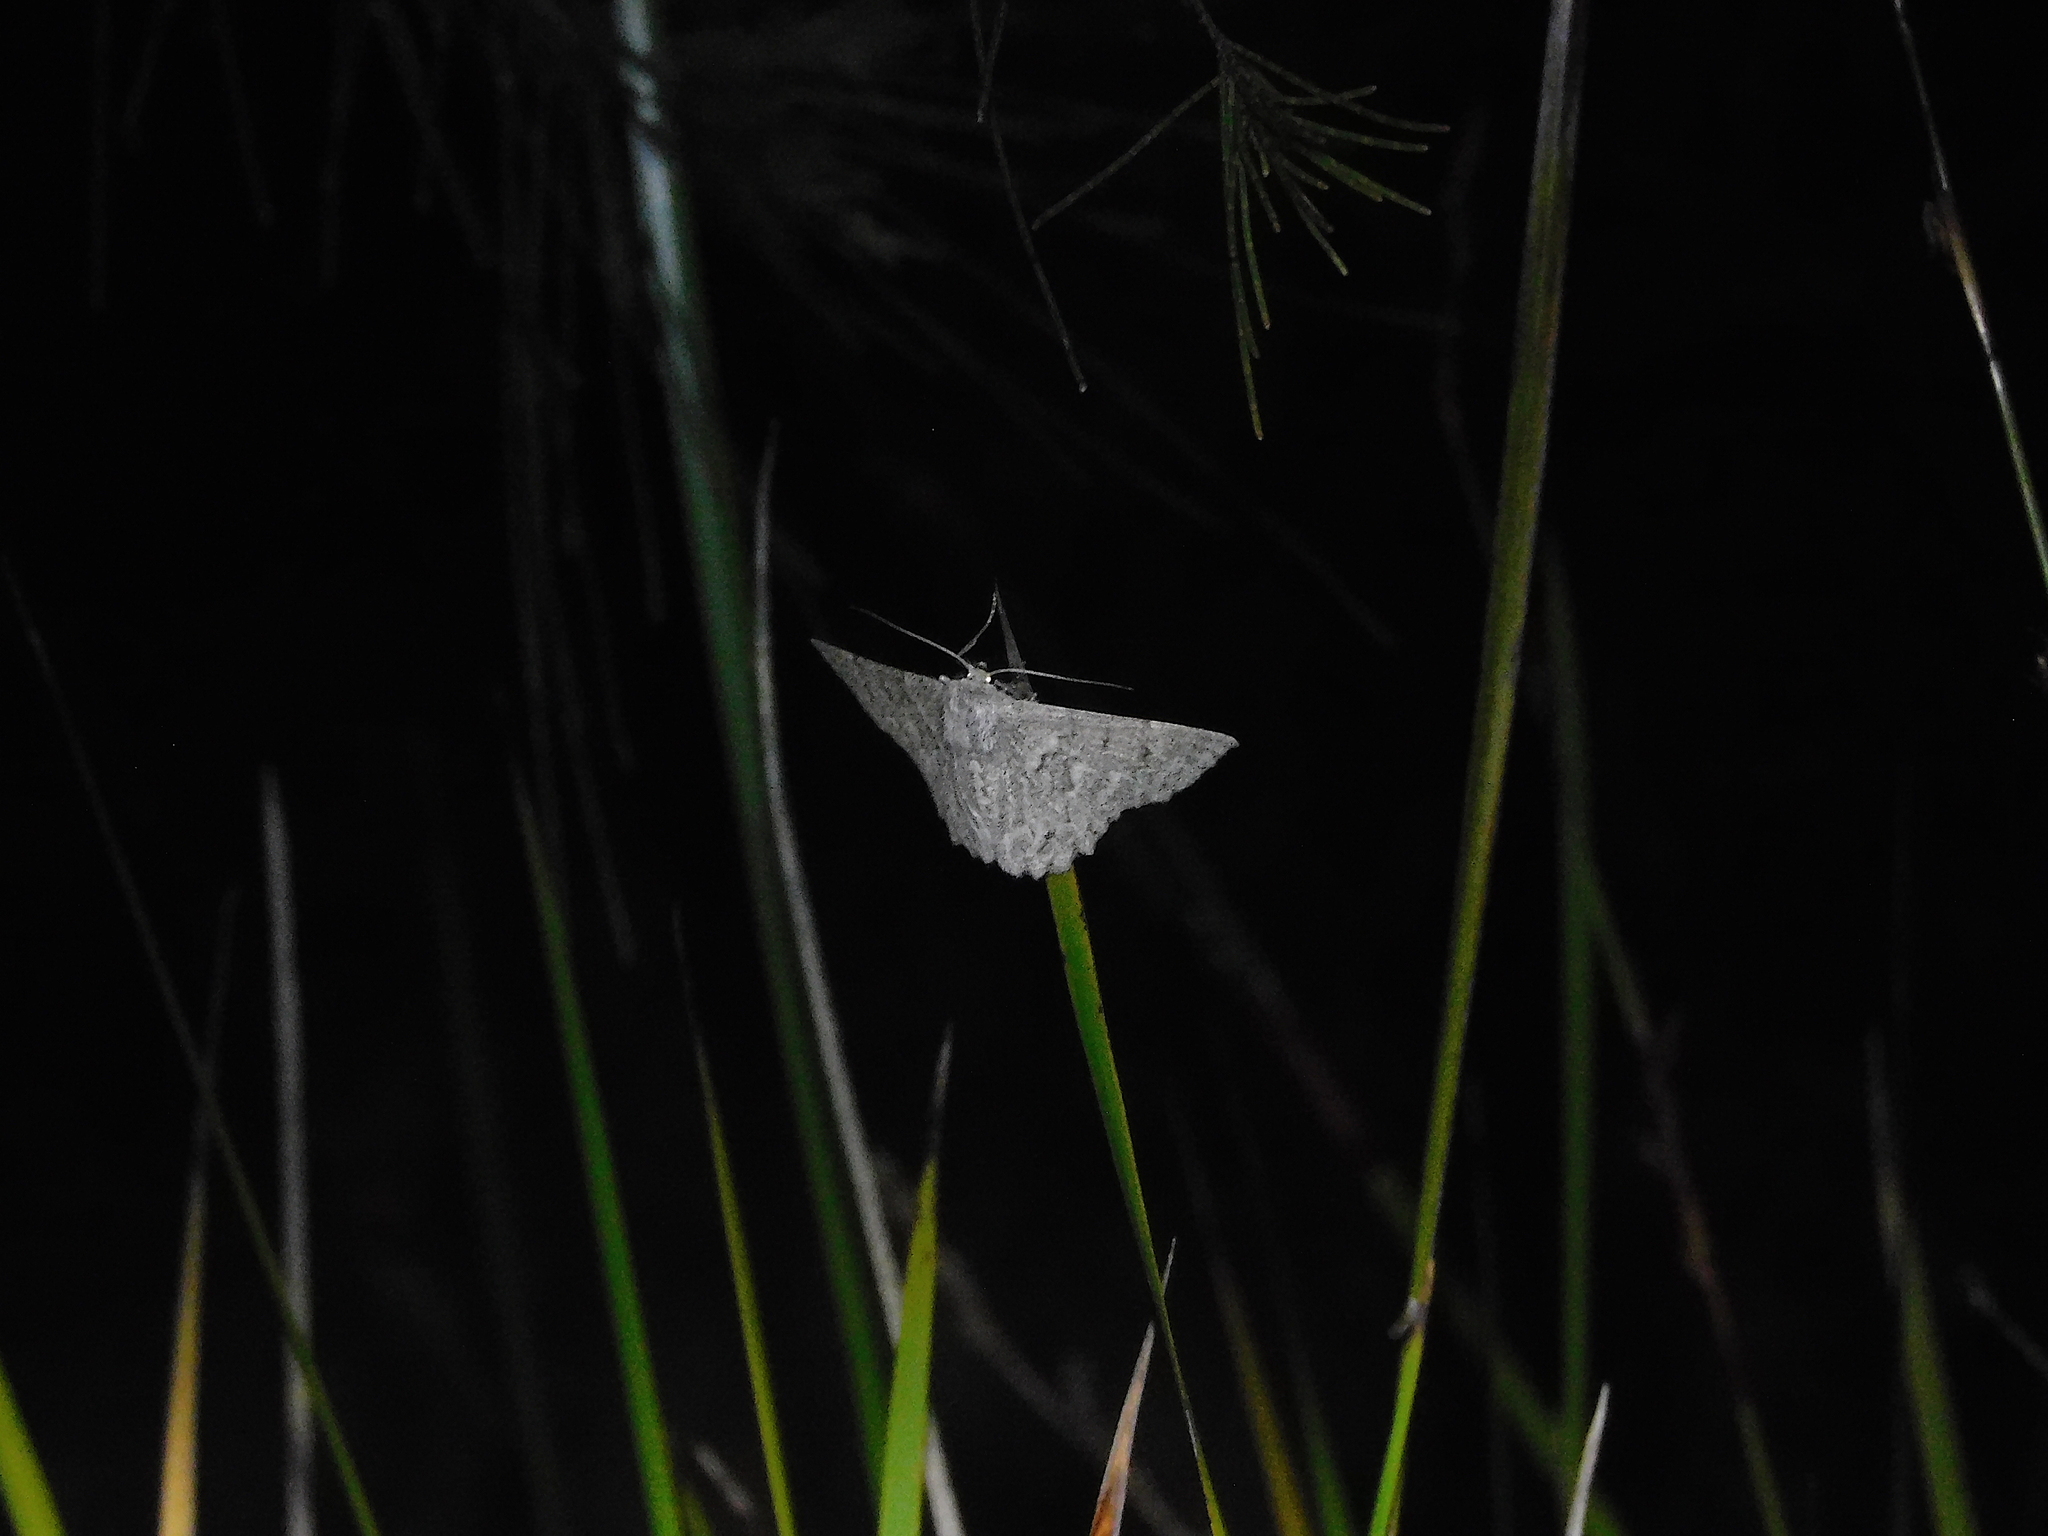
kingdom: Animalia
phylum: Arthropoda
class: Insecta
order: Lepidoptera
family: Geometridae
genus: Crypsiphona
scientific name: Crypsiphona
